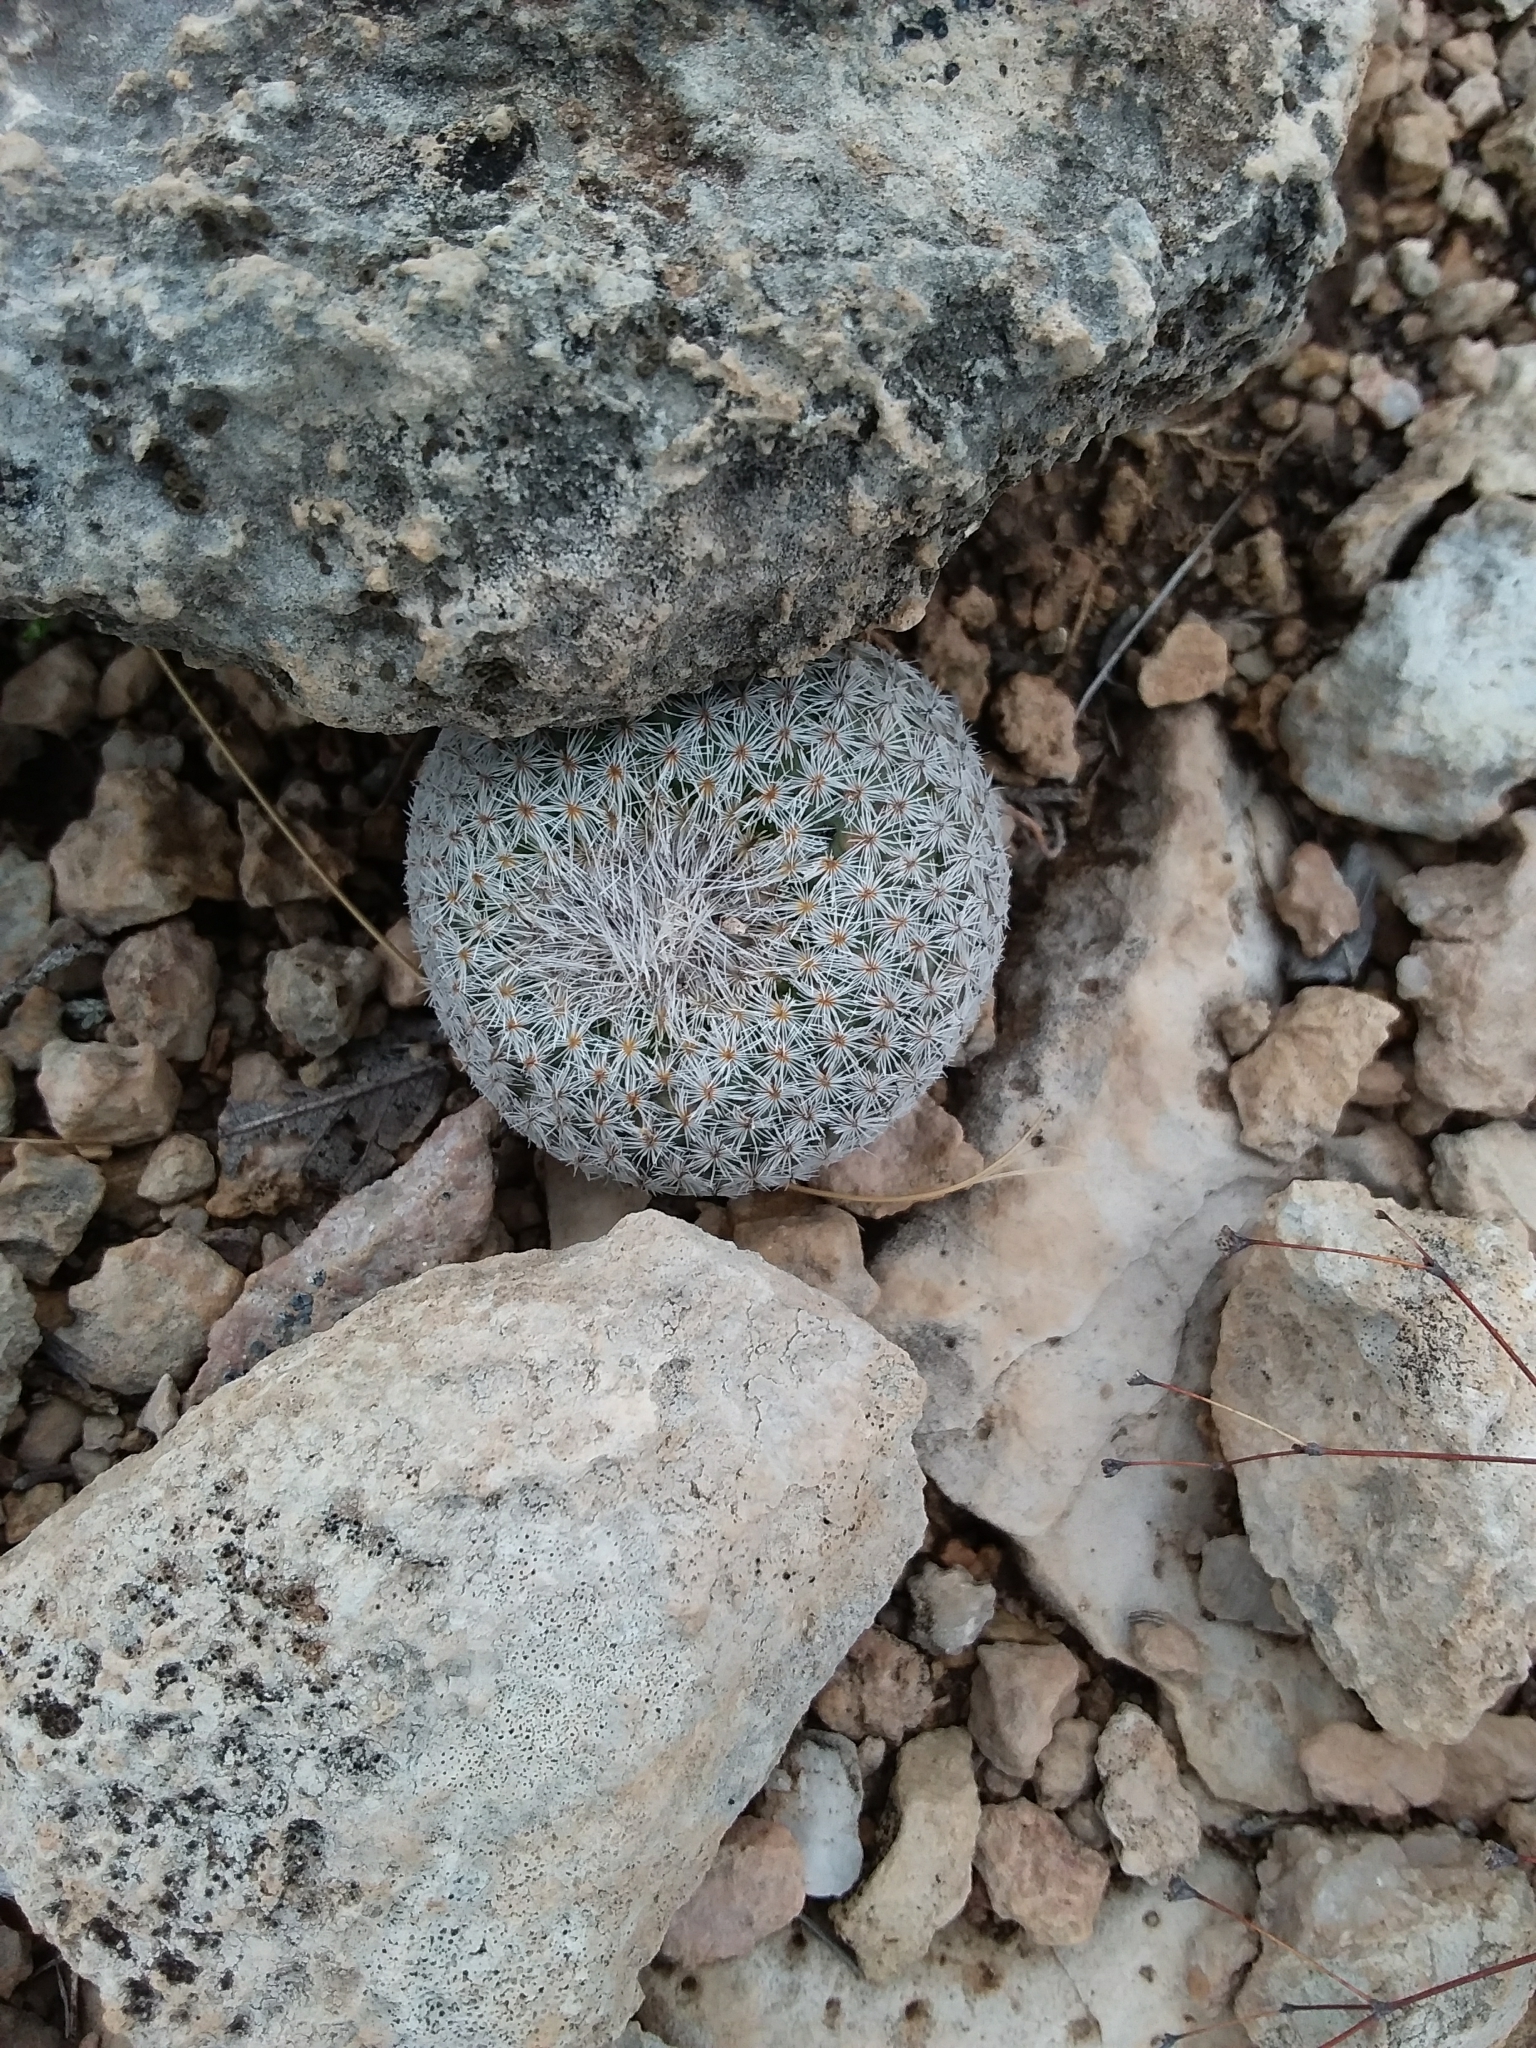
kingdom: Plantae
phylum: Tracheophyta
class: Magnoliopsida
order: Caryophyllales
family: Cactaceae
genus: Epithelantha
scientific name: Epithelantha micromeris
